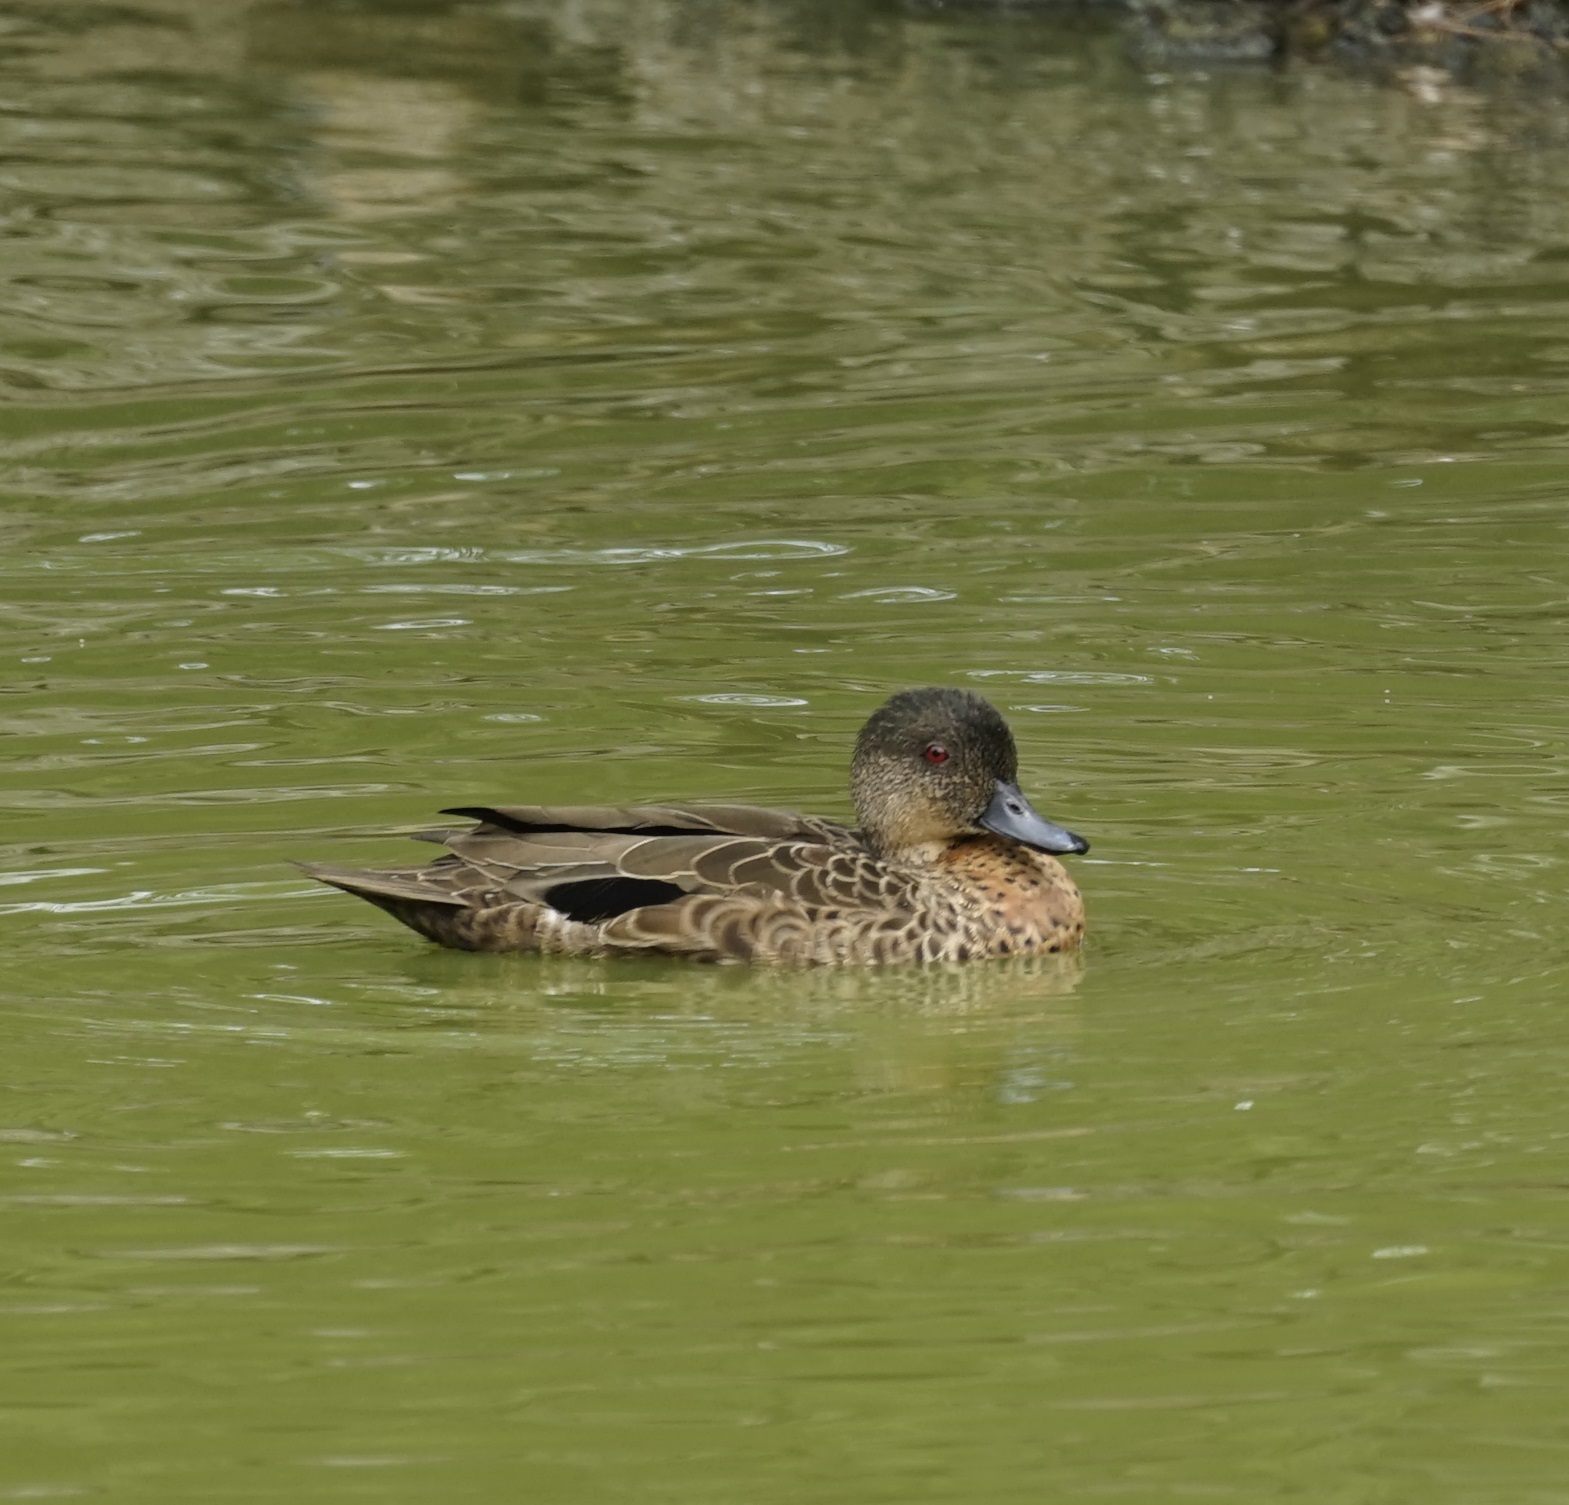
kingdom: Animalia
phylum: Chordata
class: Aves
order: Anseriformes
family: Anatidae
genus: Anas
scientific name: Anas castanea
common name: Chestnut teal
